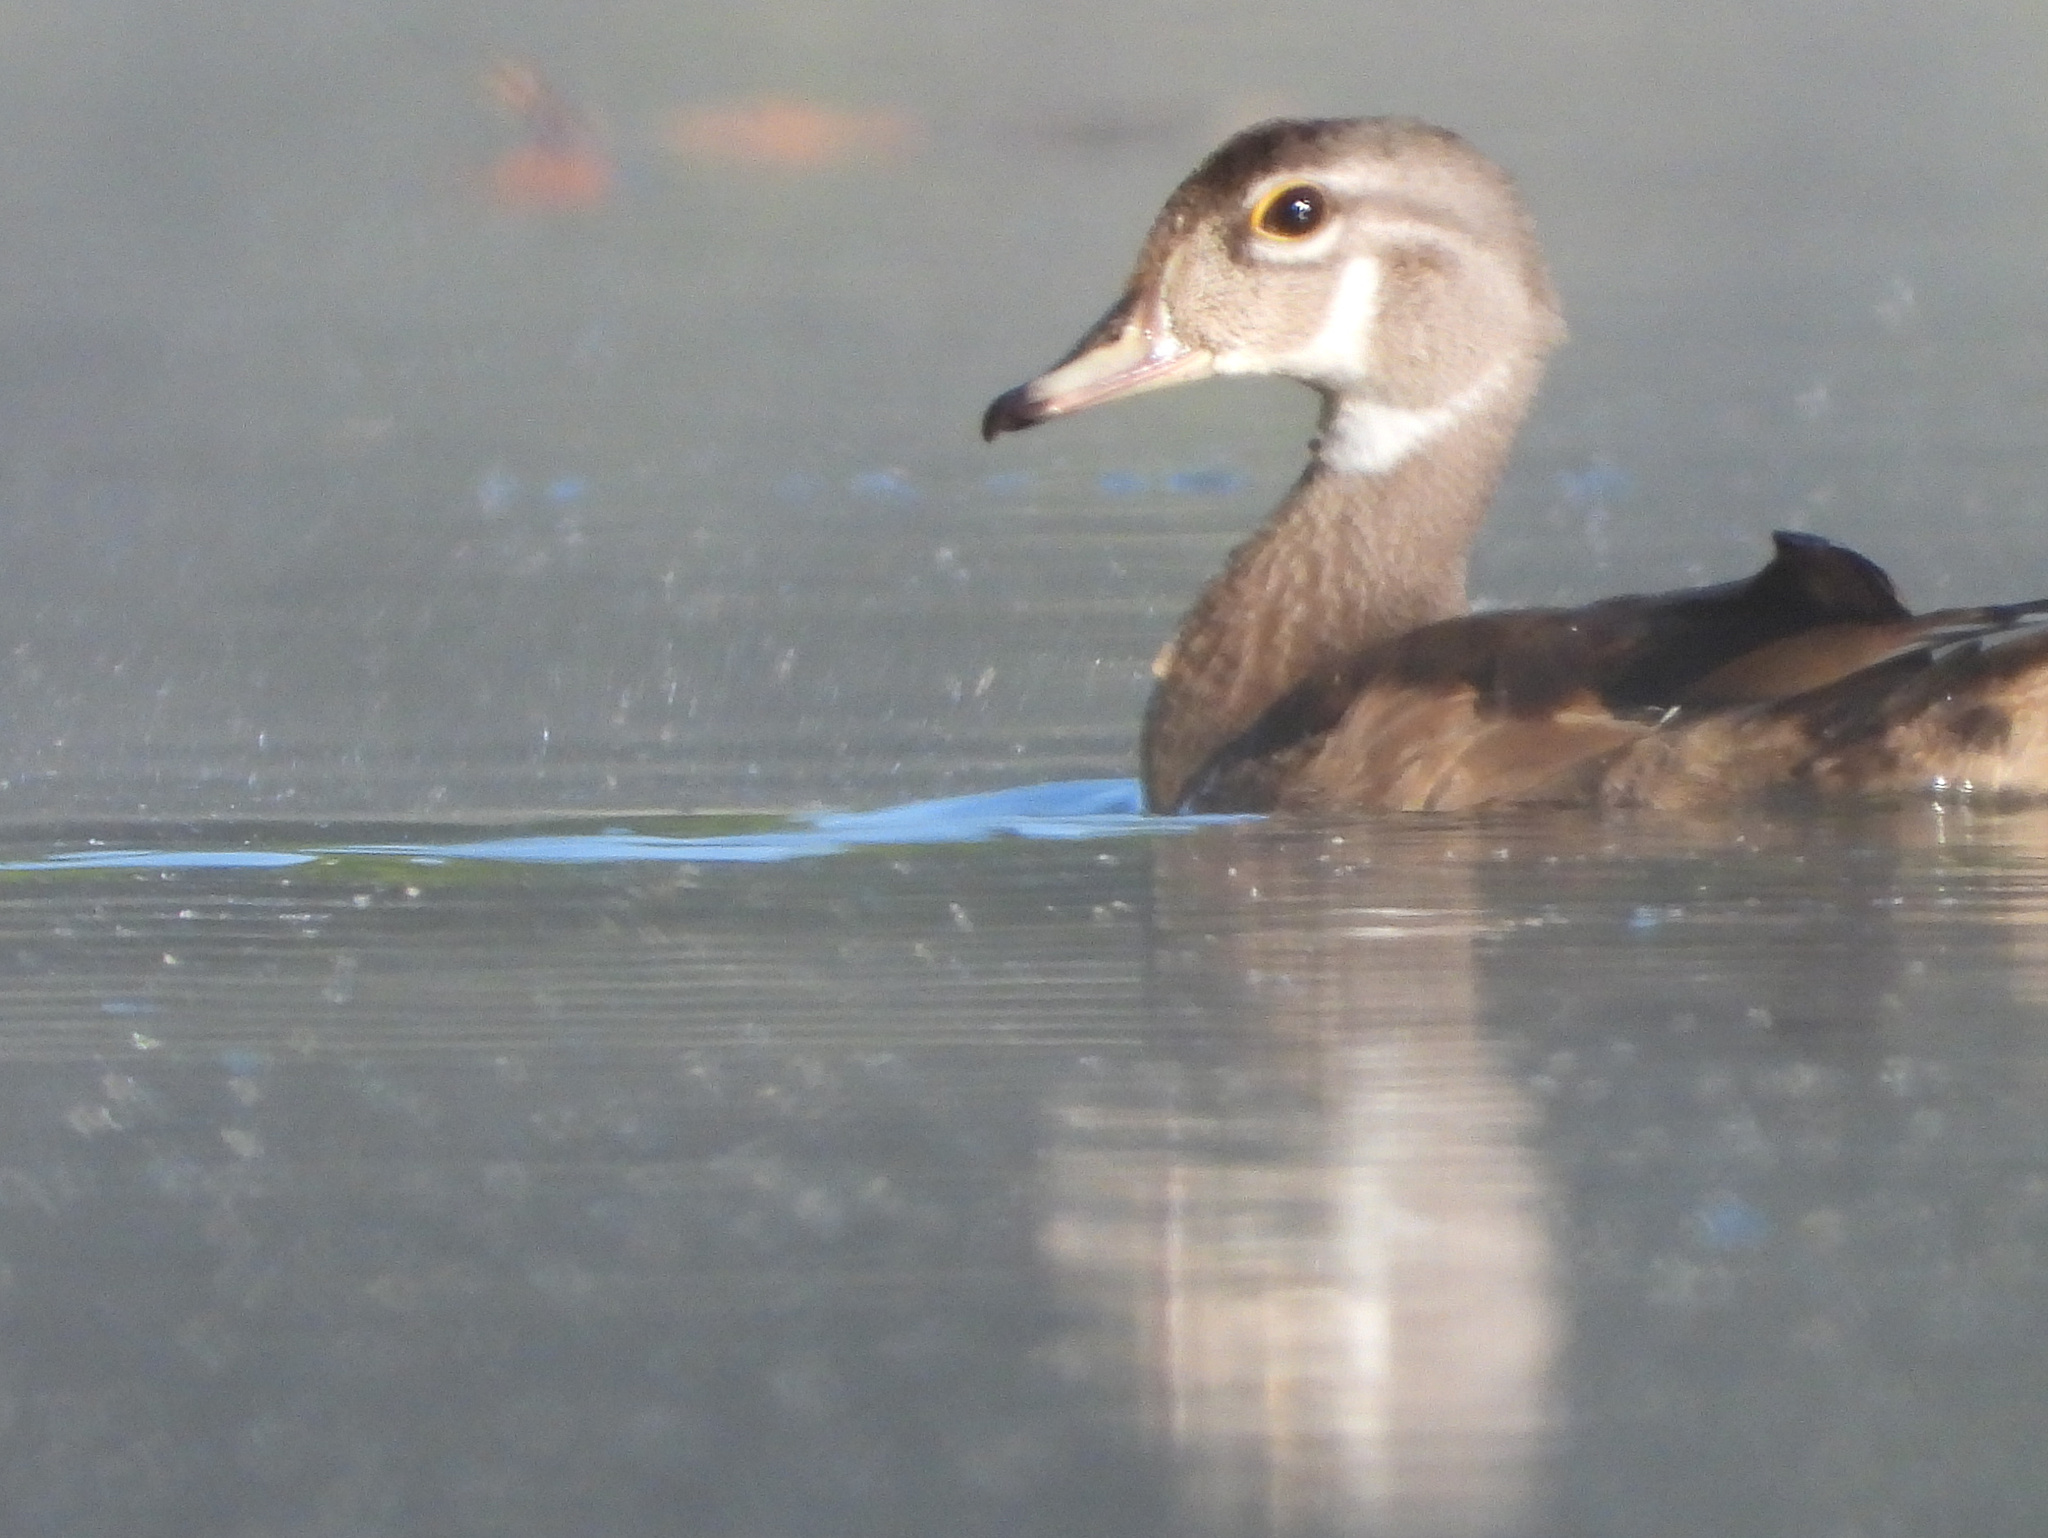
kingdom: Animalia
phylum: Chordata
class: Aves
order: Anseriformes
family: Anatidae
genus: Aix
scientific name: Aix sponsa
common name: Wood duck
